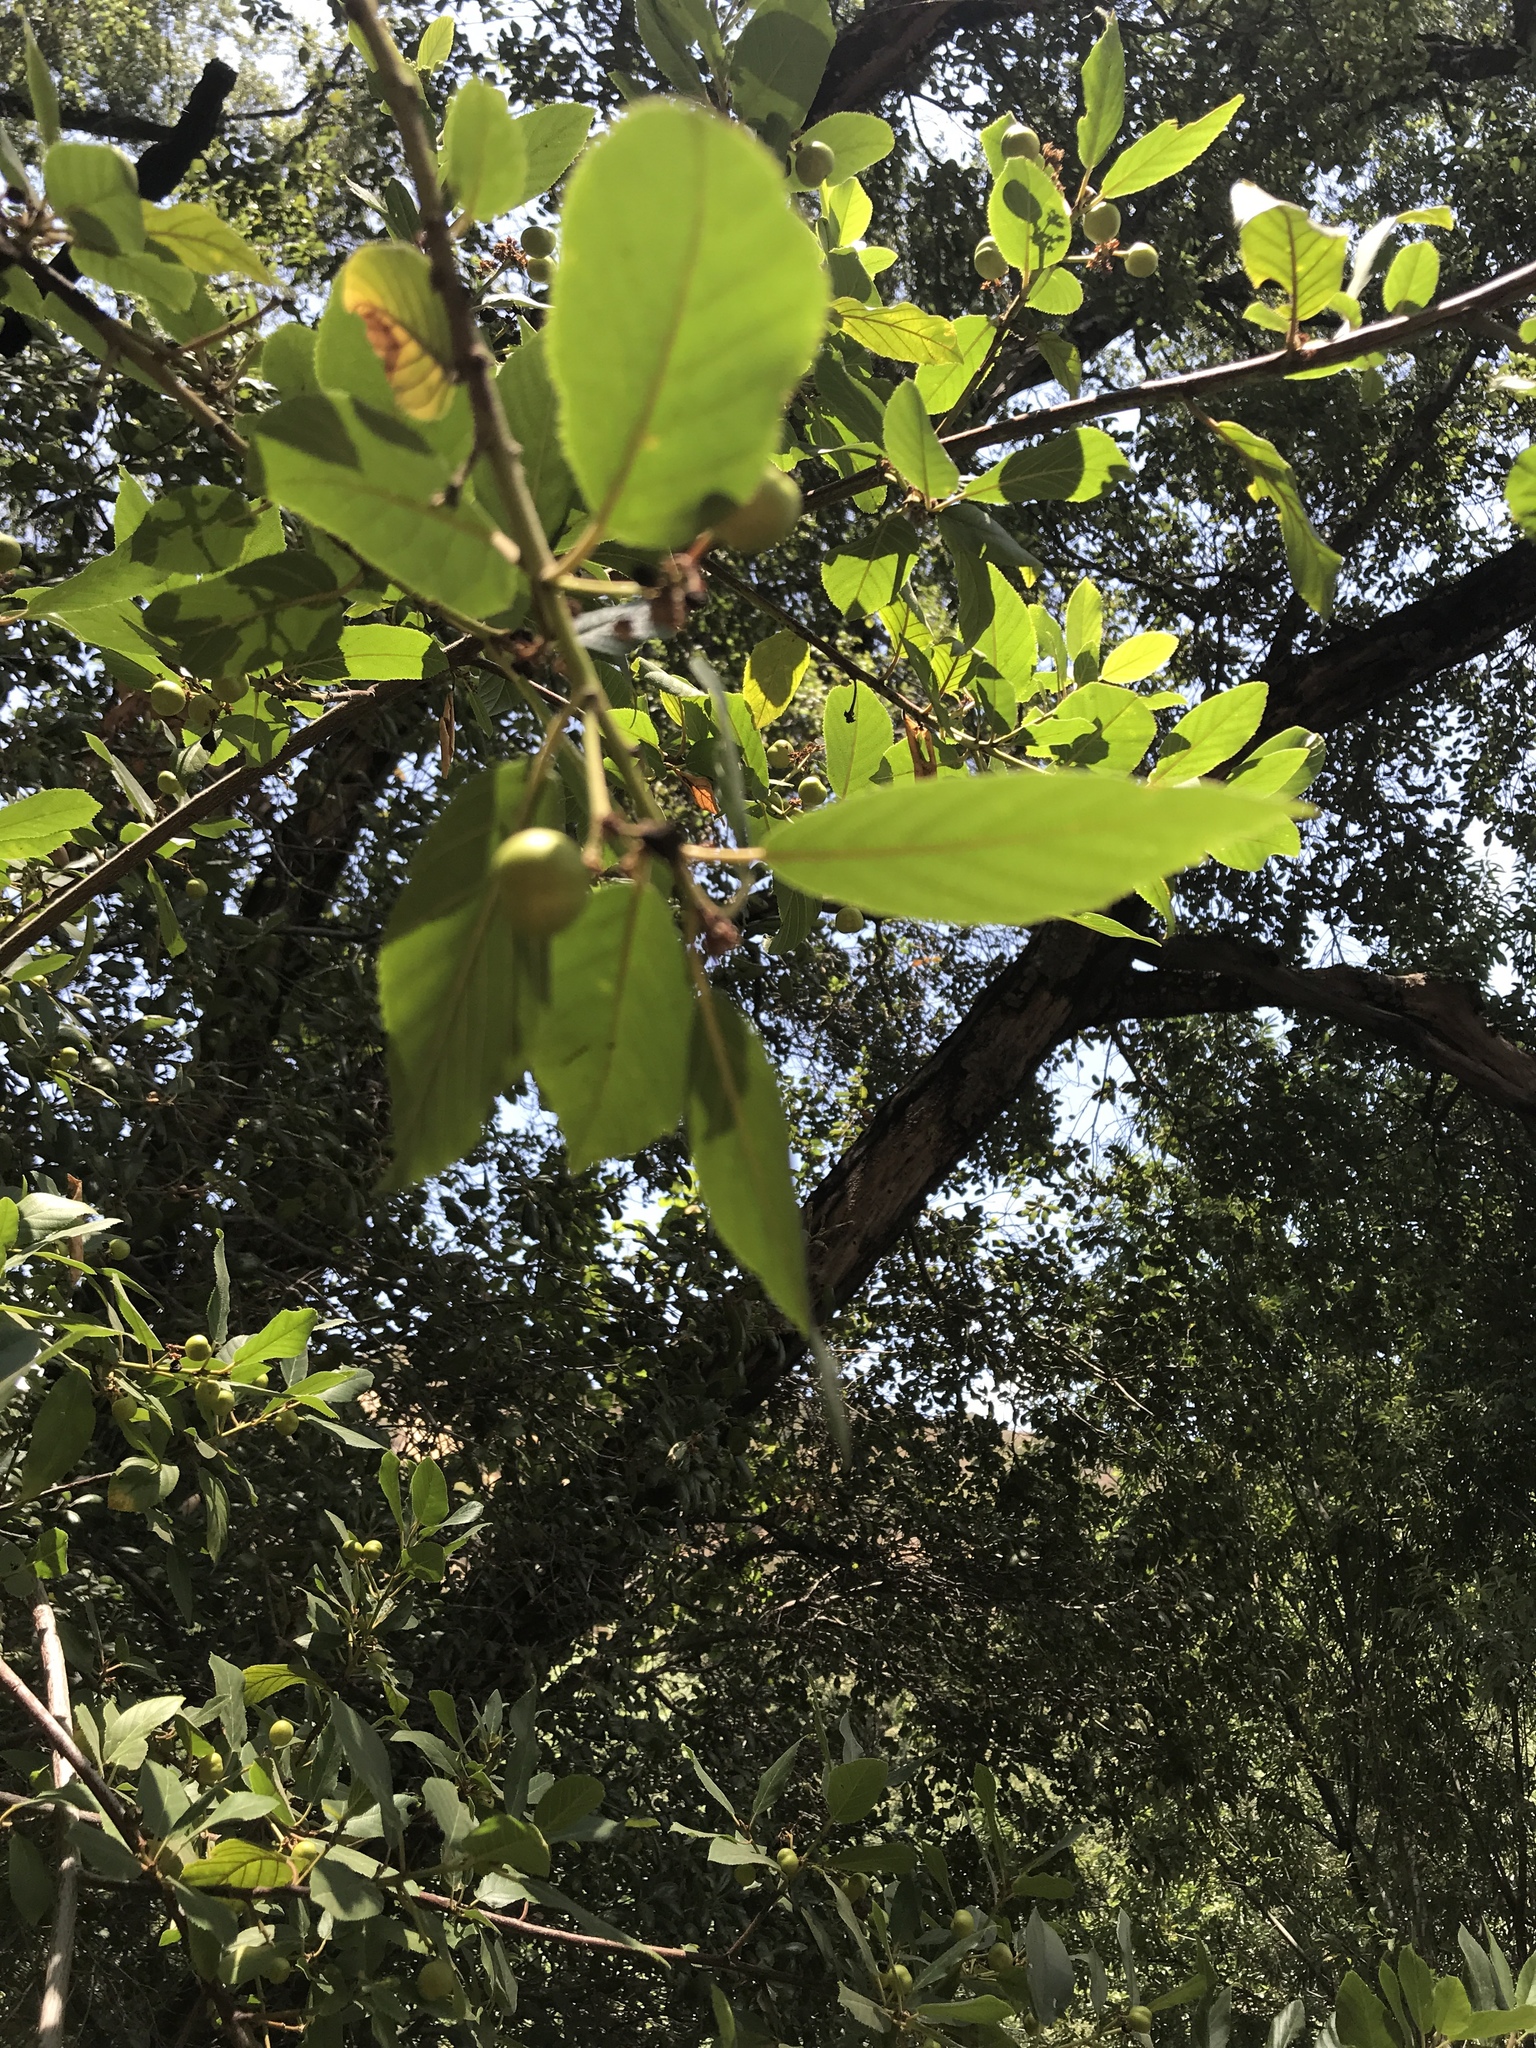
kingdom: Plantae
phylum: Tracheophyta
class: Magnoliopsida
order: Rosales
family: Rhamnaceae
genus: Frangula
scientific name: Frangula californica
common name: California buckthorn
